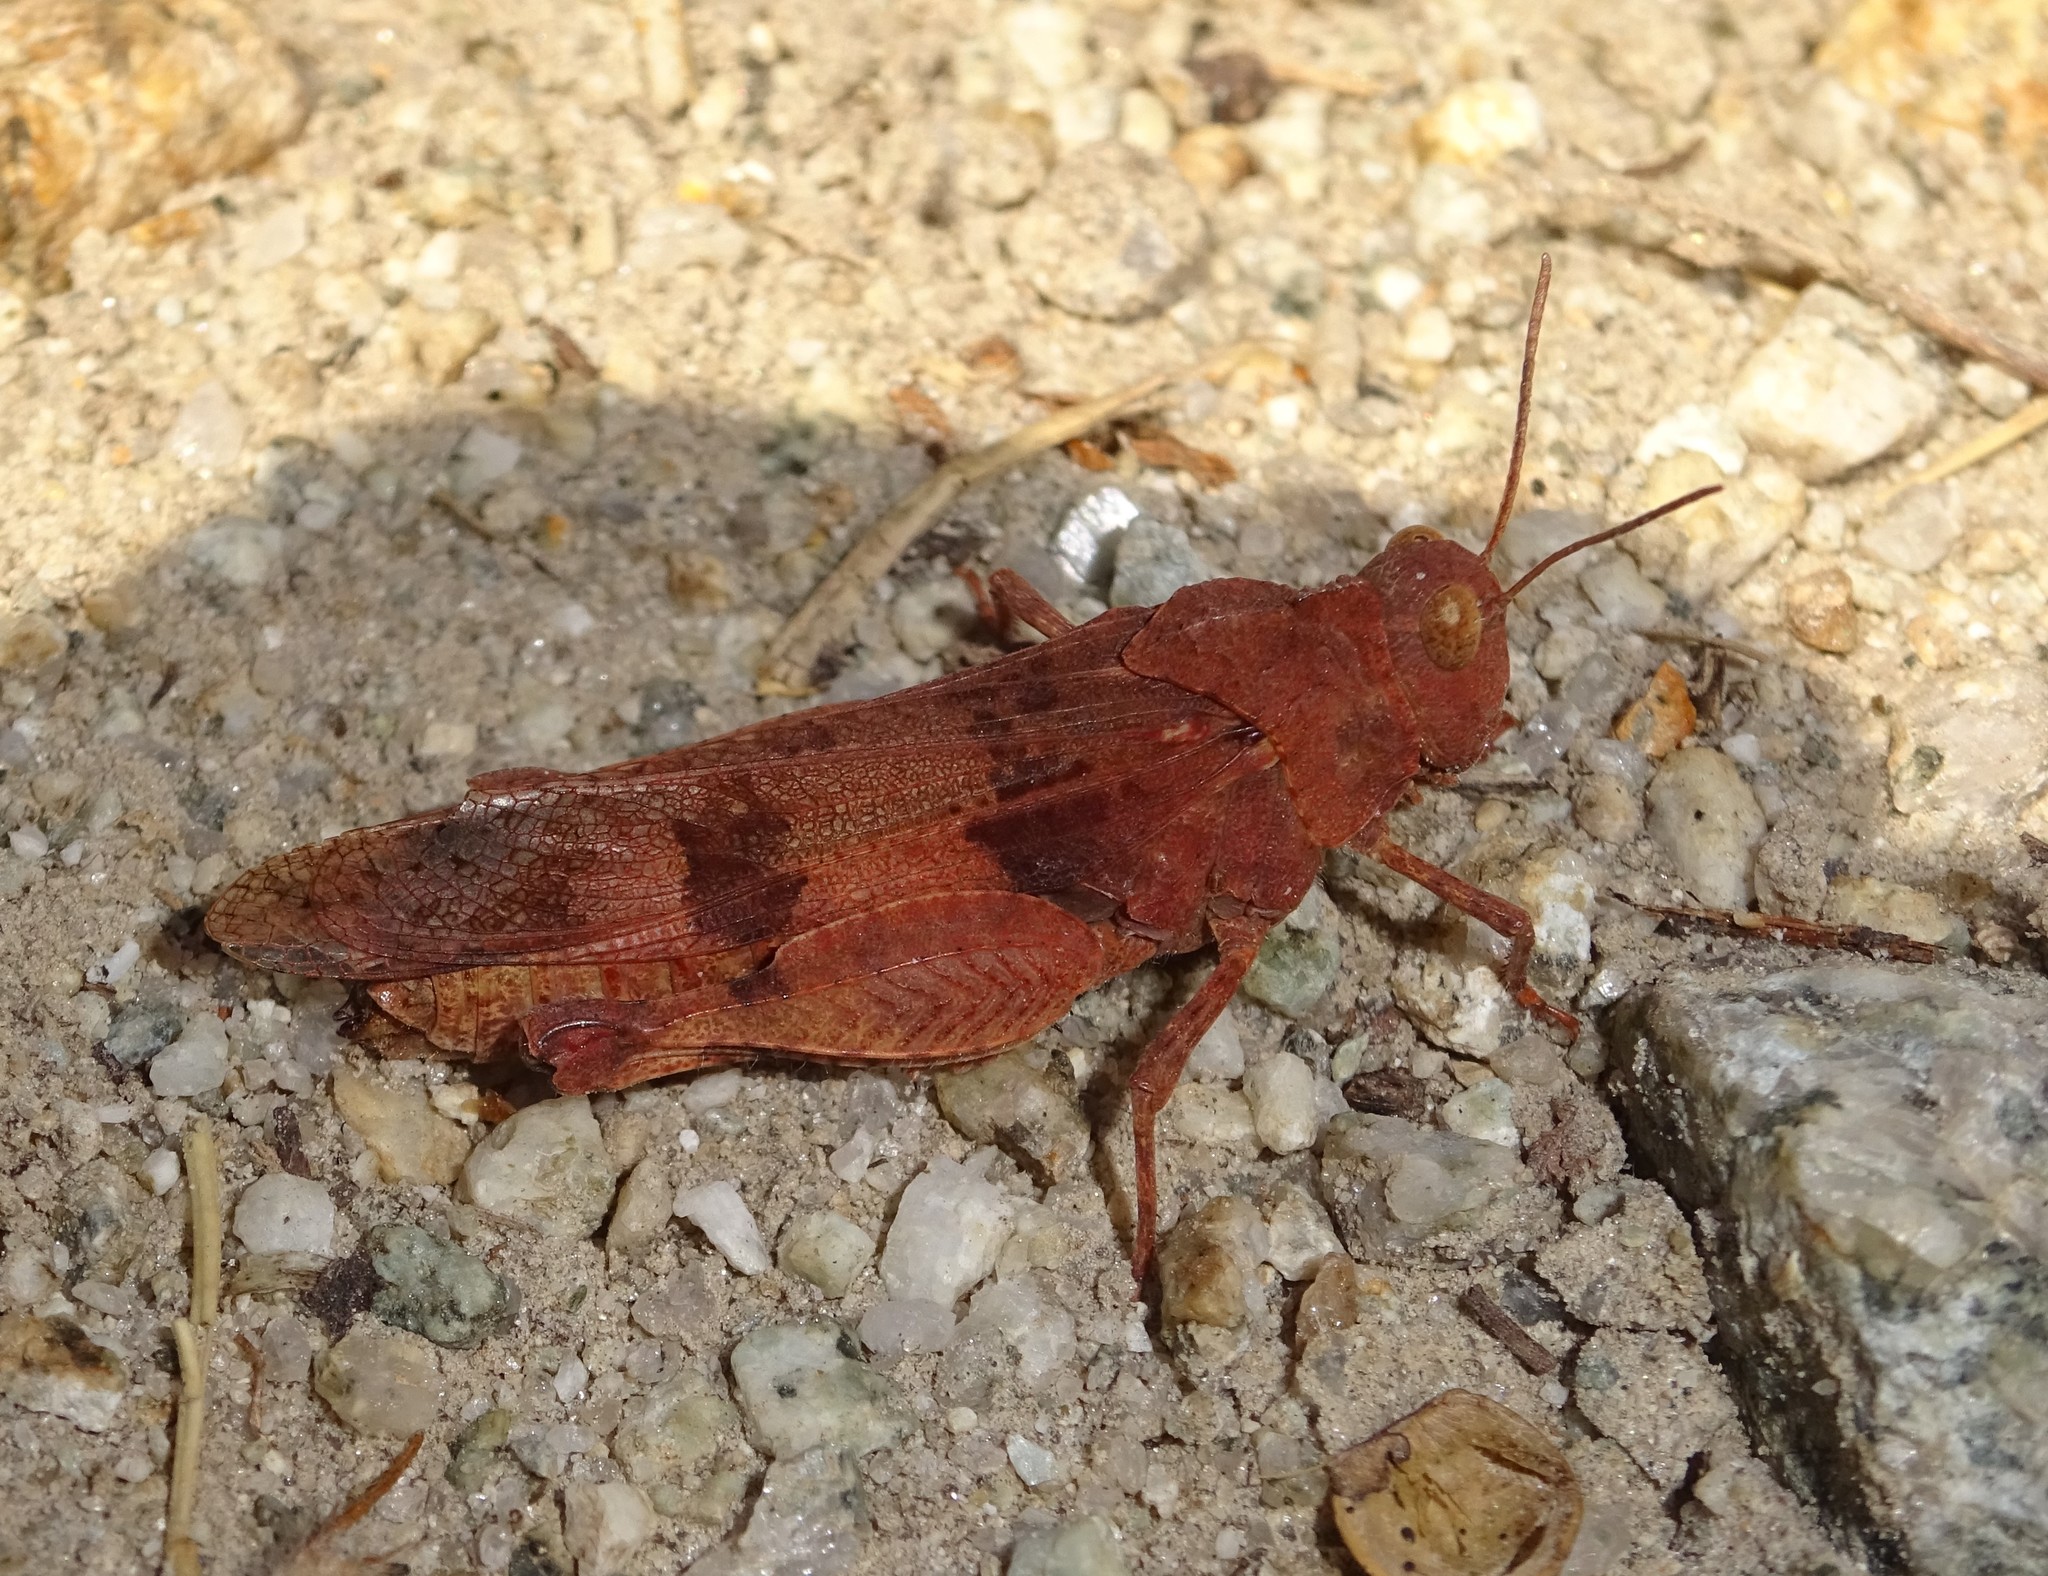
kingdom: Animalia
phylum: Arthropoda
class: Insecta
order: Orthoptera
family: Acrididae
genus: Oedipoda
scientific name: Oedipoda caerulescens
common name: Blue-winged grasshopper
